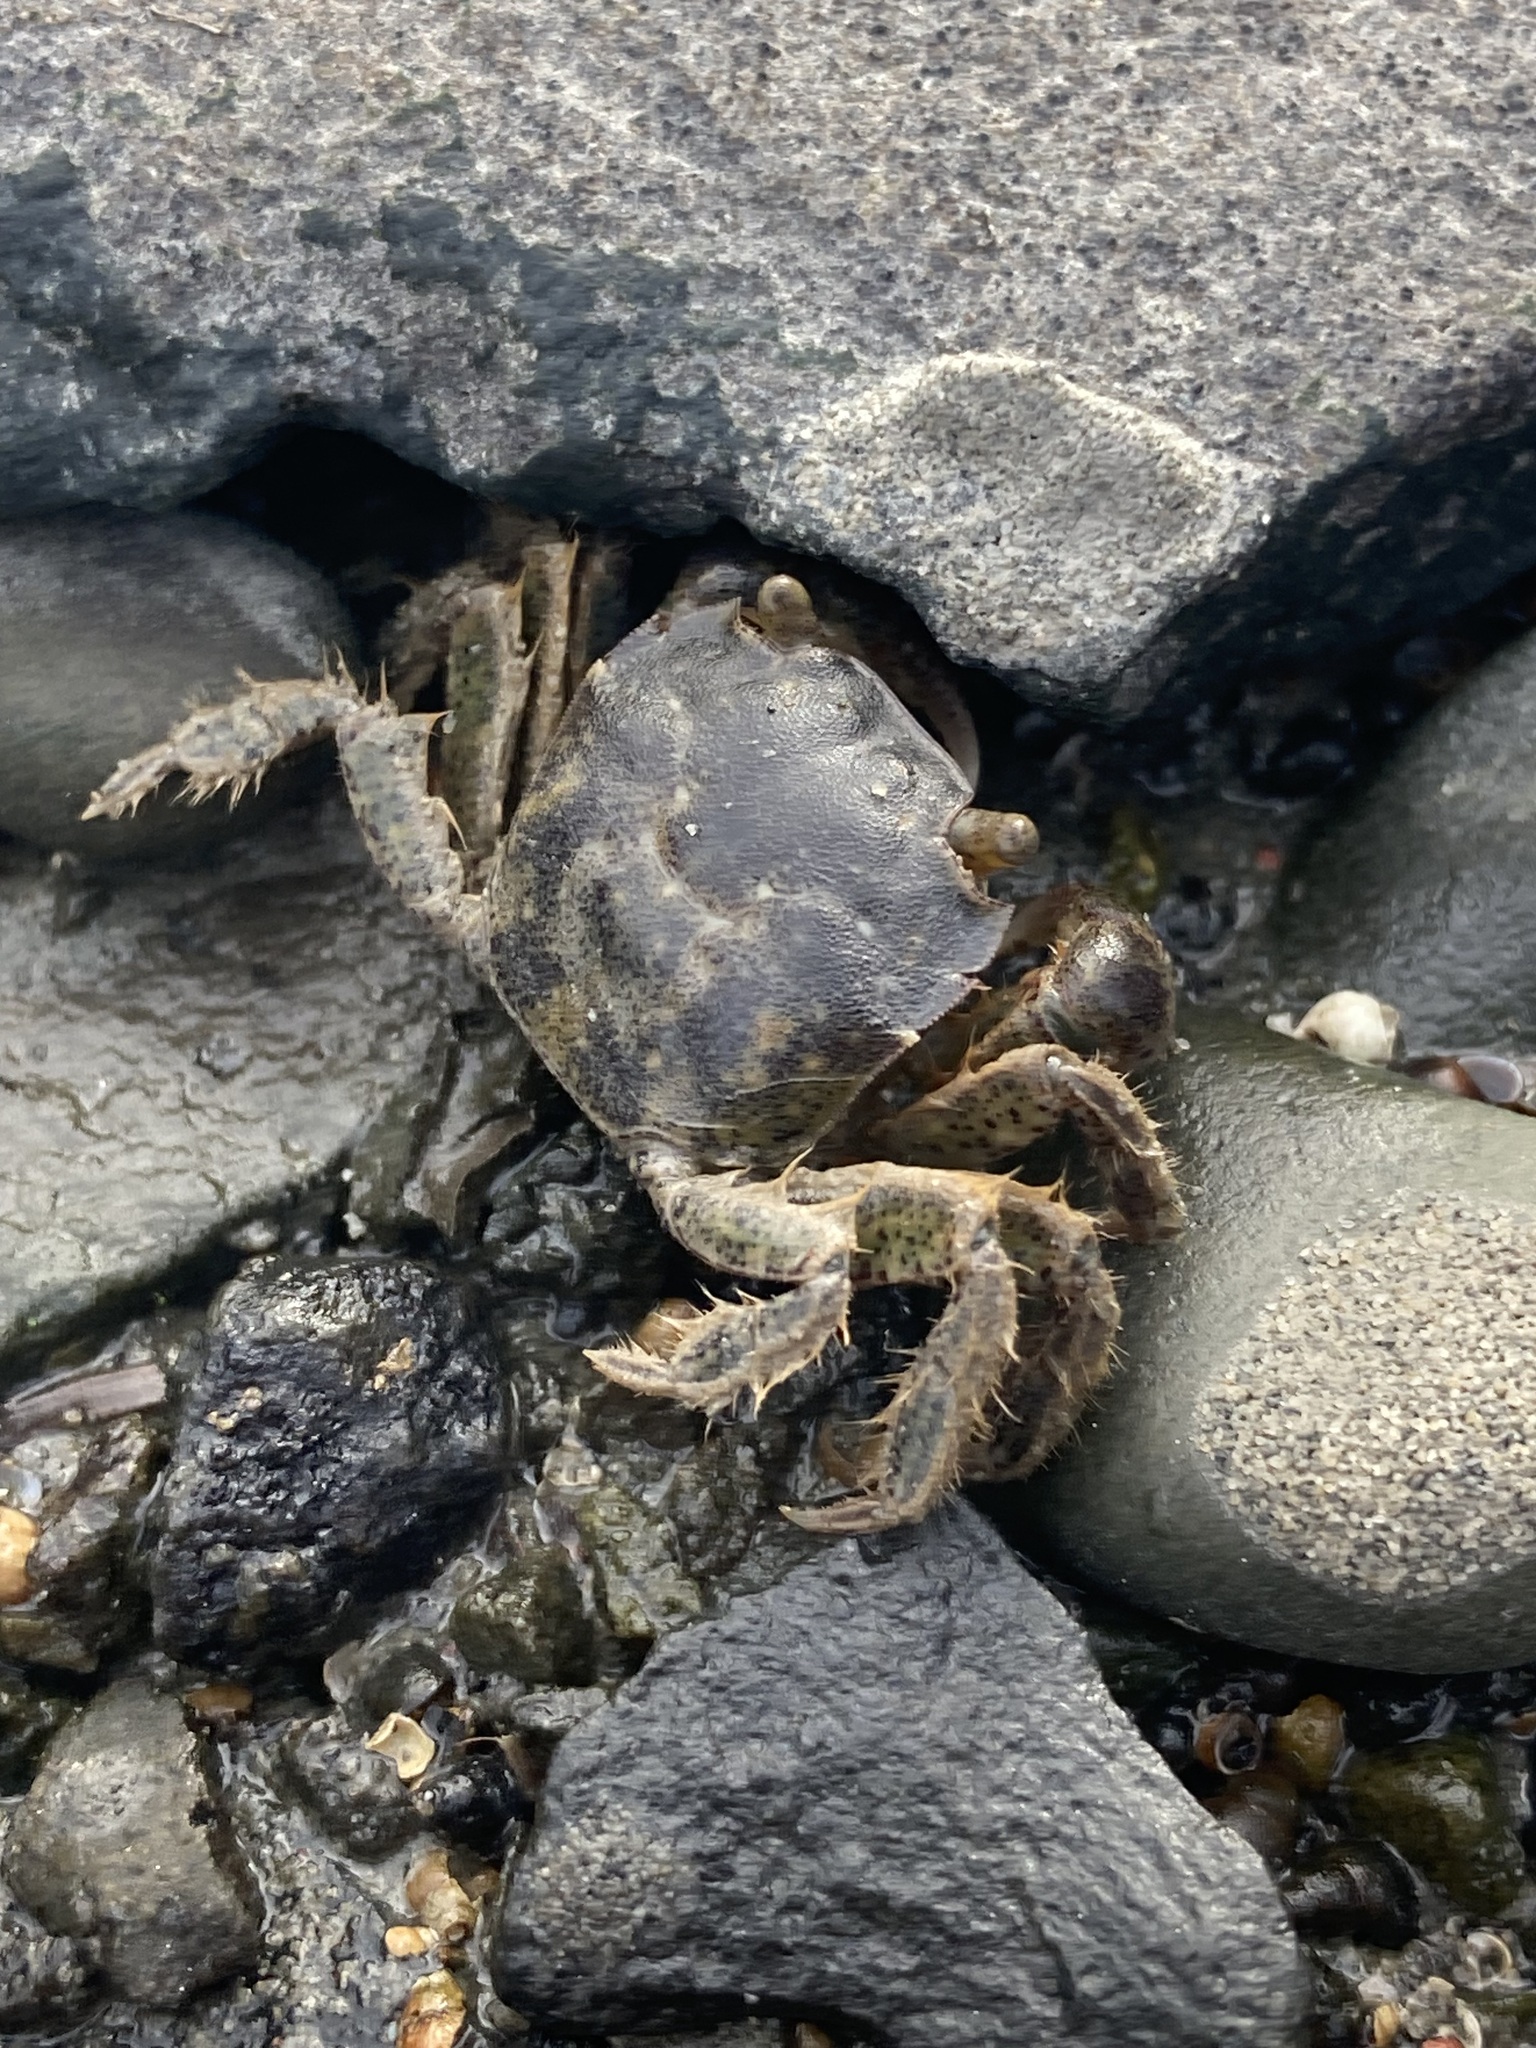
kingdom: Animalia
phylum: Arthropoda
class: Malacostraca
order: Decapoda
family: Varunidae
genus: Hemigrapsus
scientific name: Hemigrapsus crenulatus
